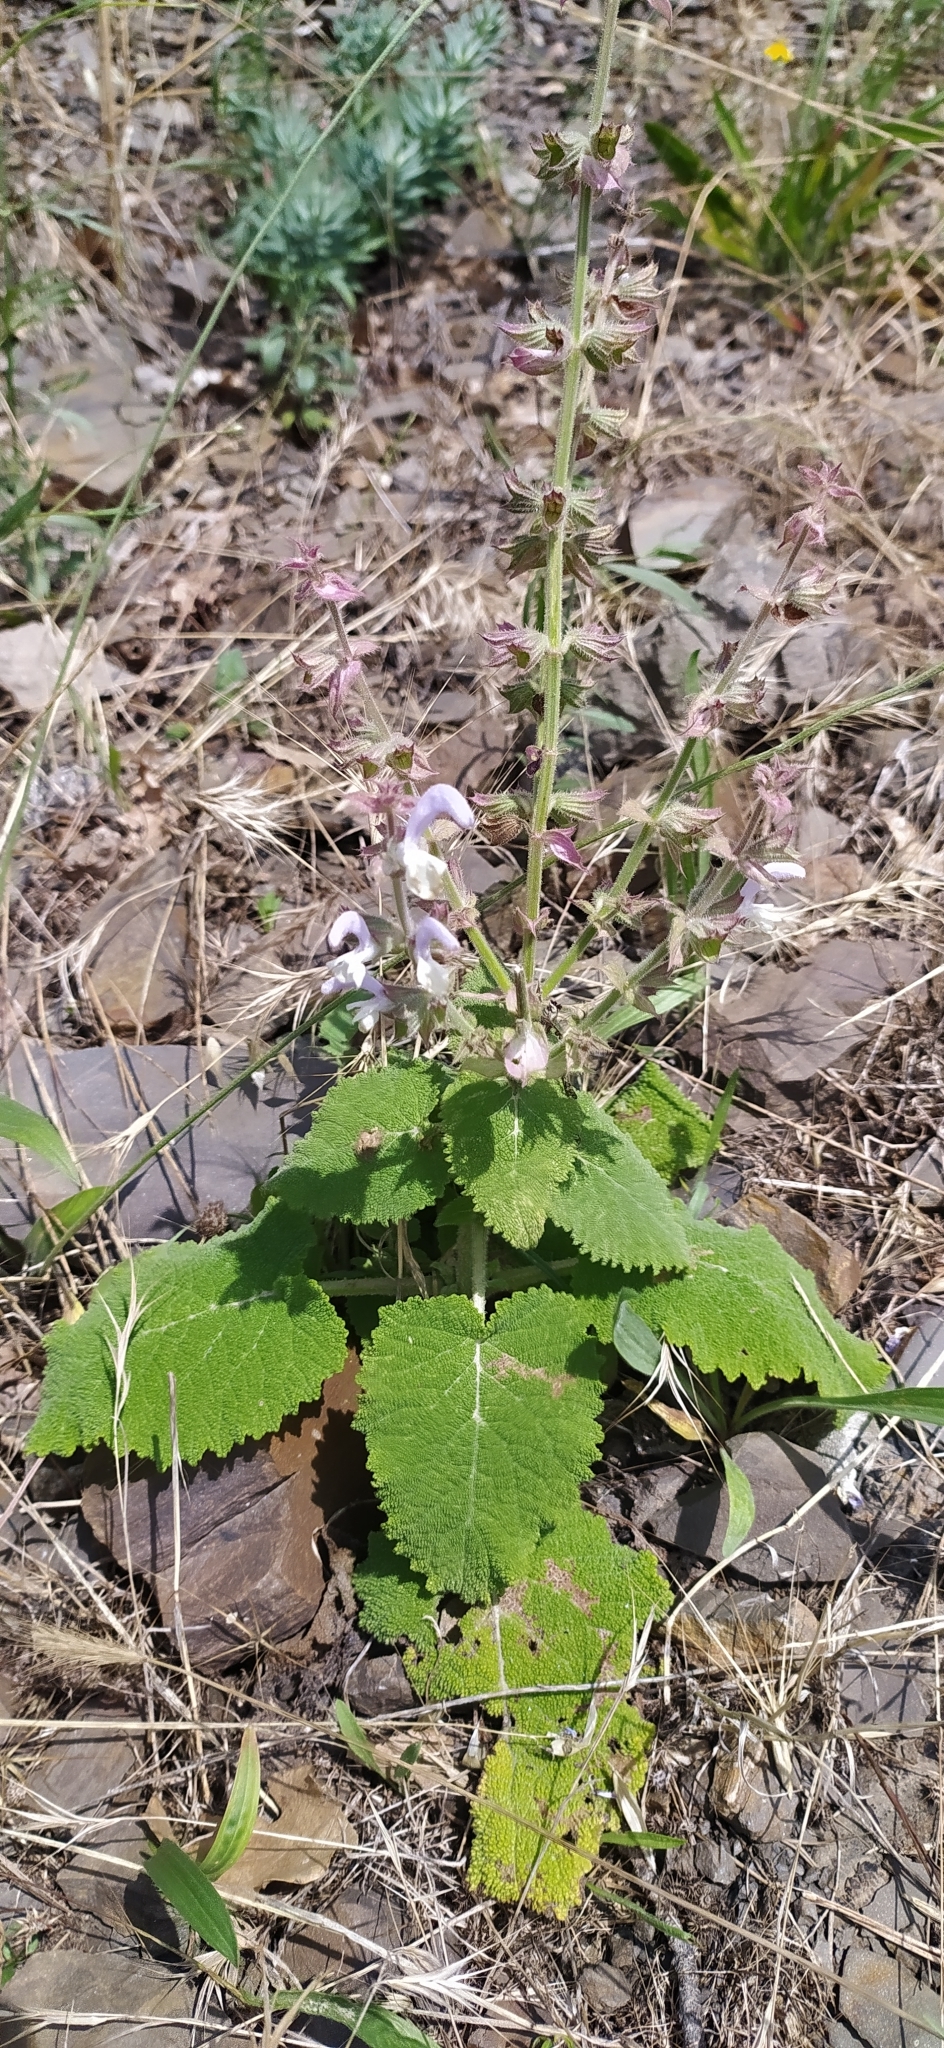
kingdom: Plantae
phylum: Tracheophyta
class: Magnoliopsida
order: Lamiales
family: Lamiaceae
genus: Salvia
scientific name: Salvia sclarea
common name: Clary
